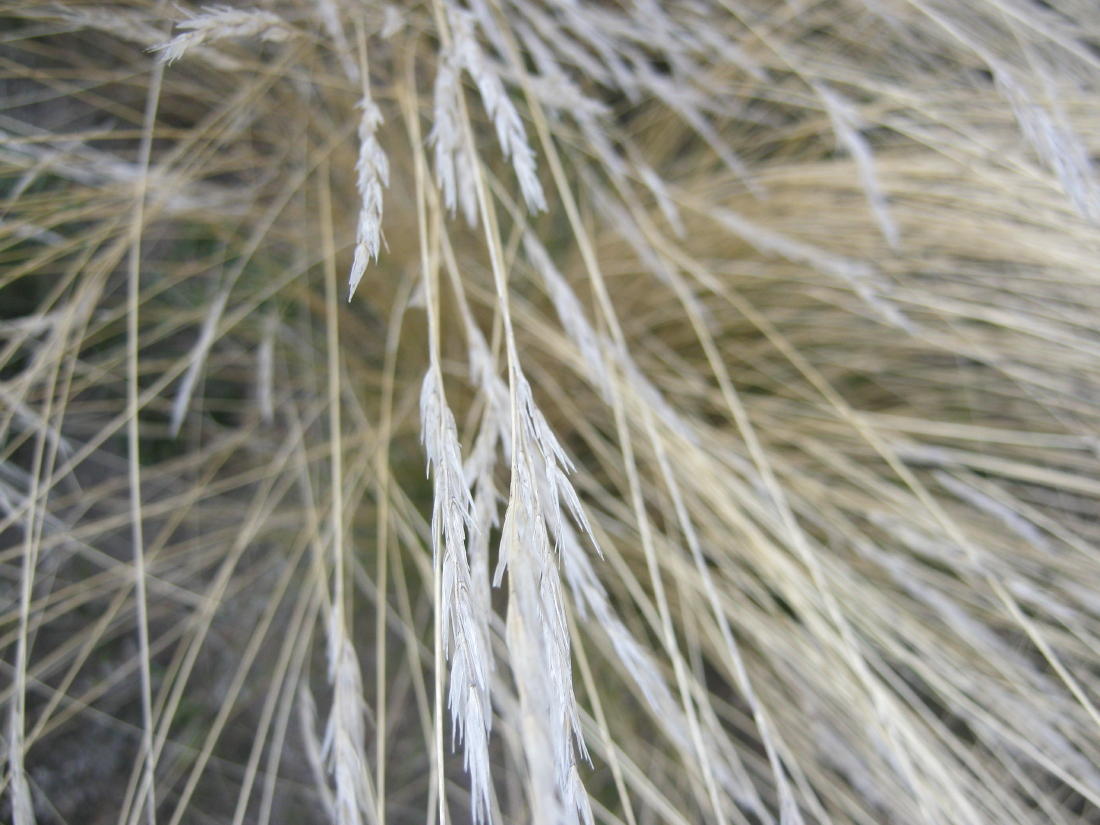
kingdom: Plantae
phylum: Tracheophyta
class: Liliopsida
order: Poales
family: Poaceae
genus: Aristida
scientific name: Aristida junciformis
